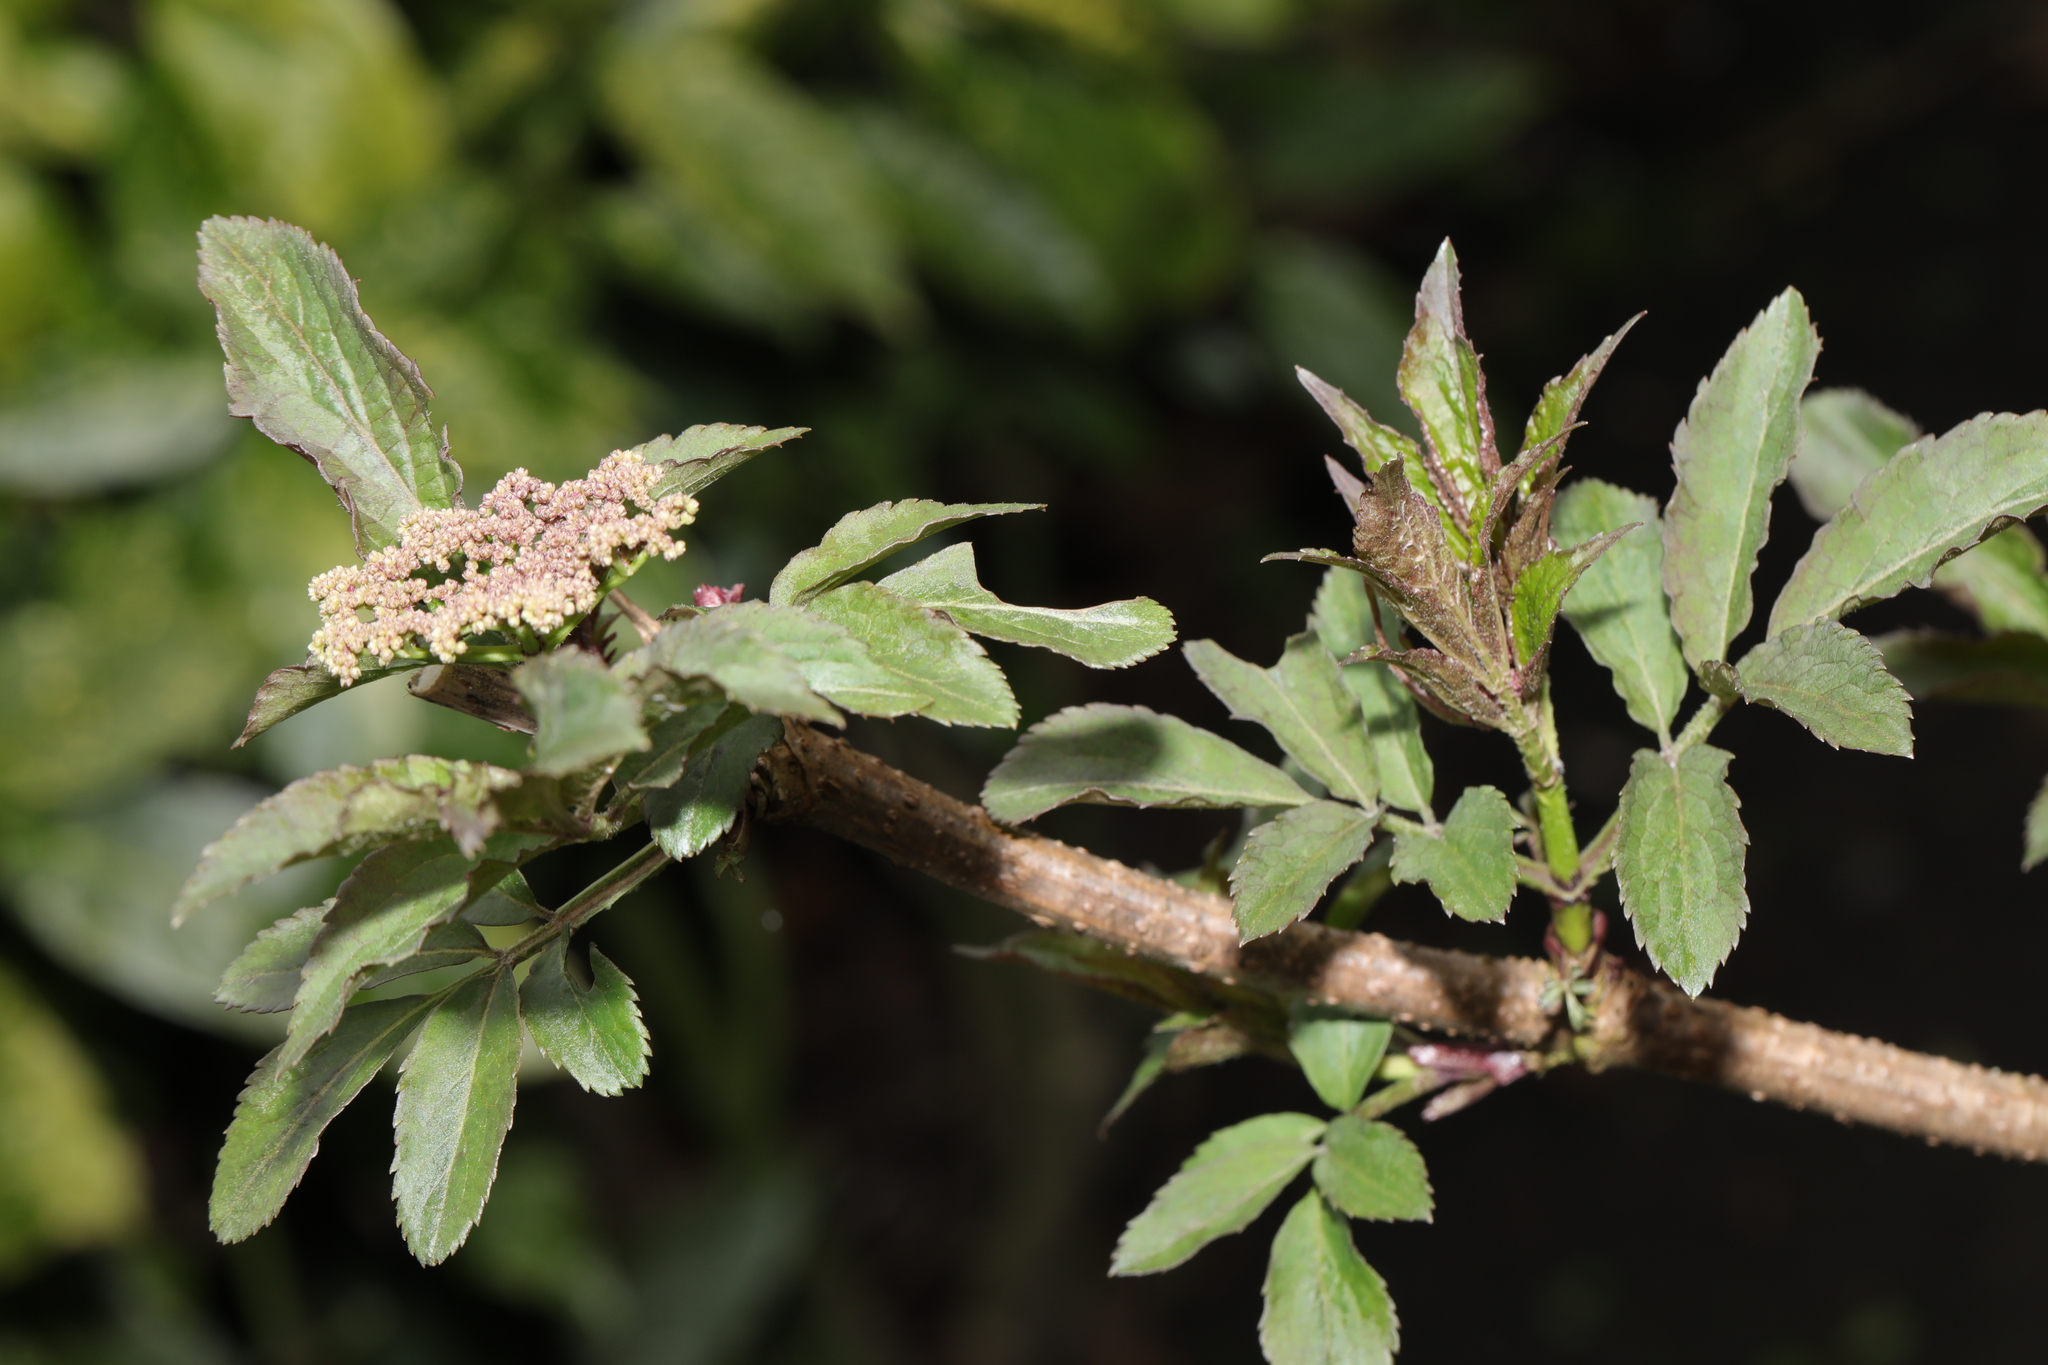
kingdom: Plantae
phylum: Tracheophyta
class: Magnoliopsida
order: Dipsacales
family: Viburnaceae
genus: Sambucus
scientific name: Sambucus nigra
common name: Elder
